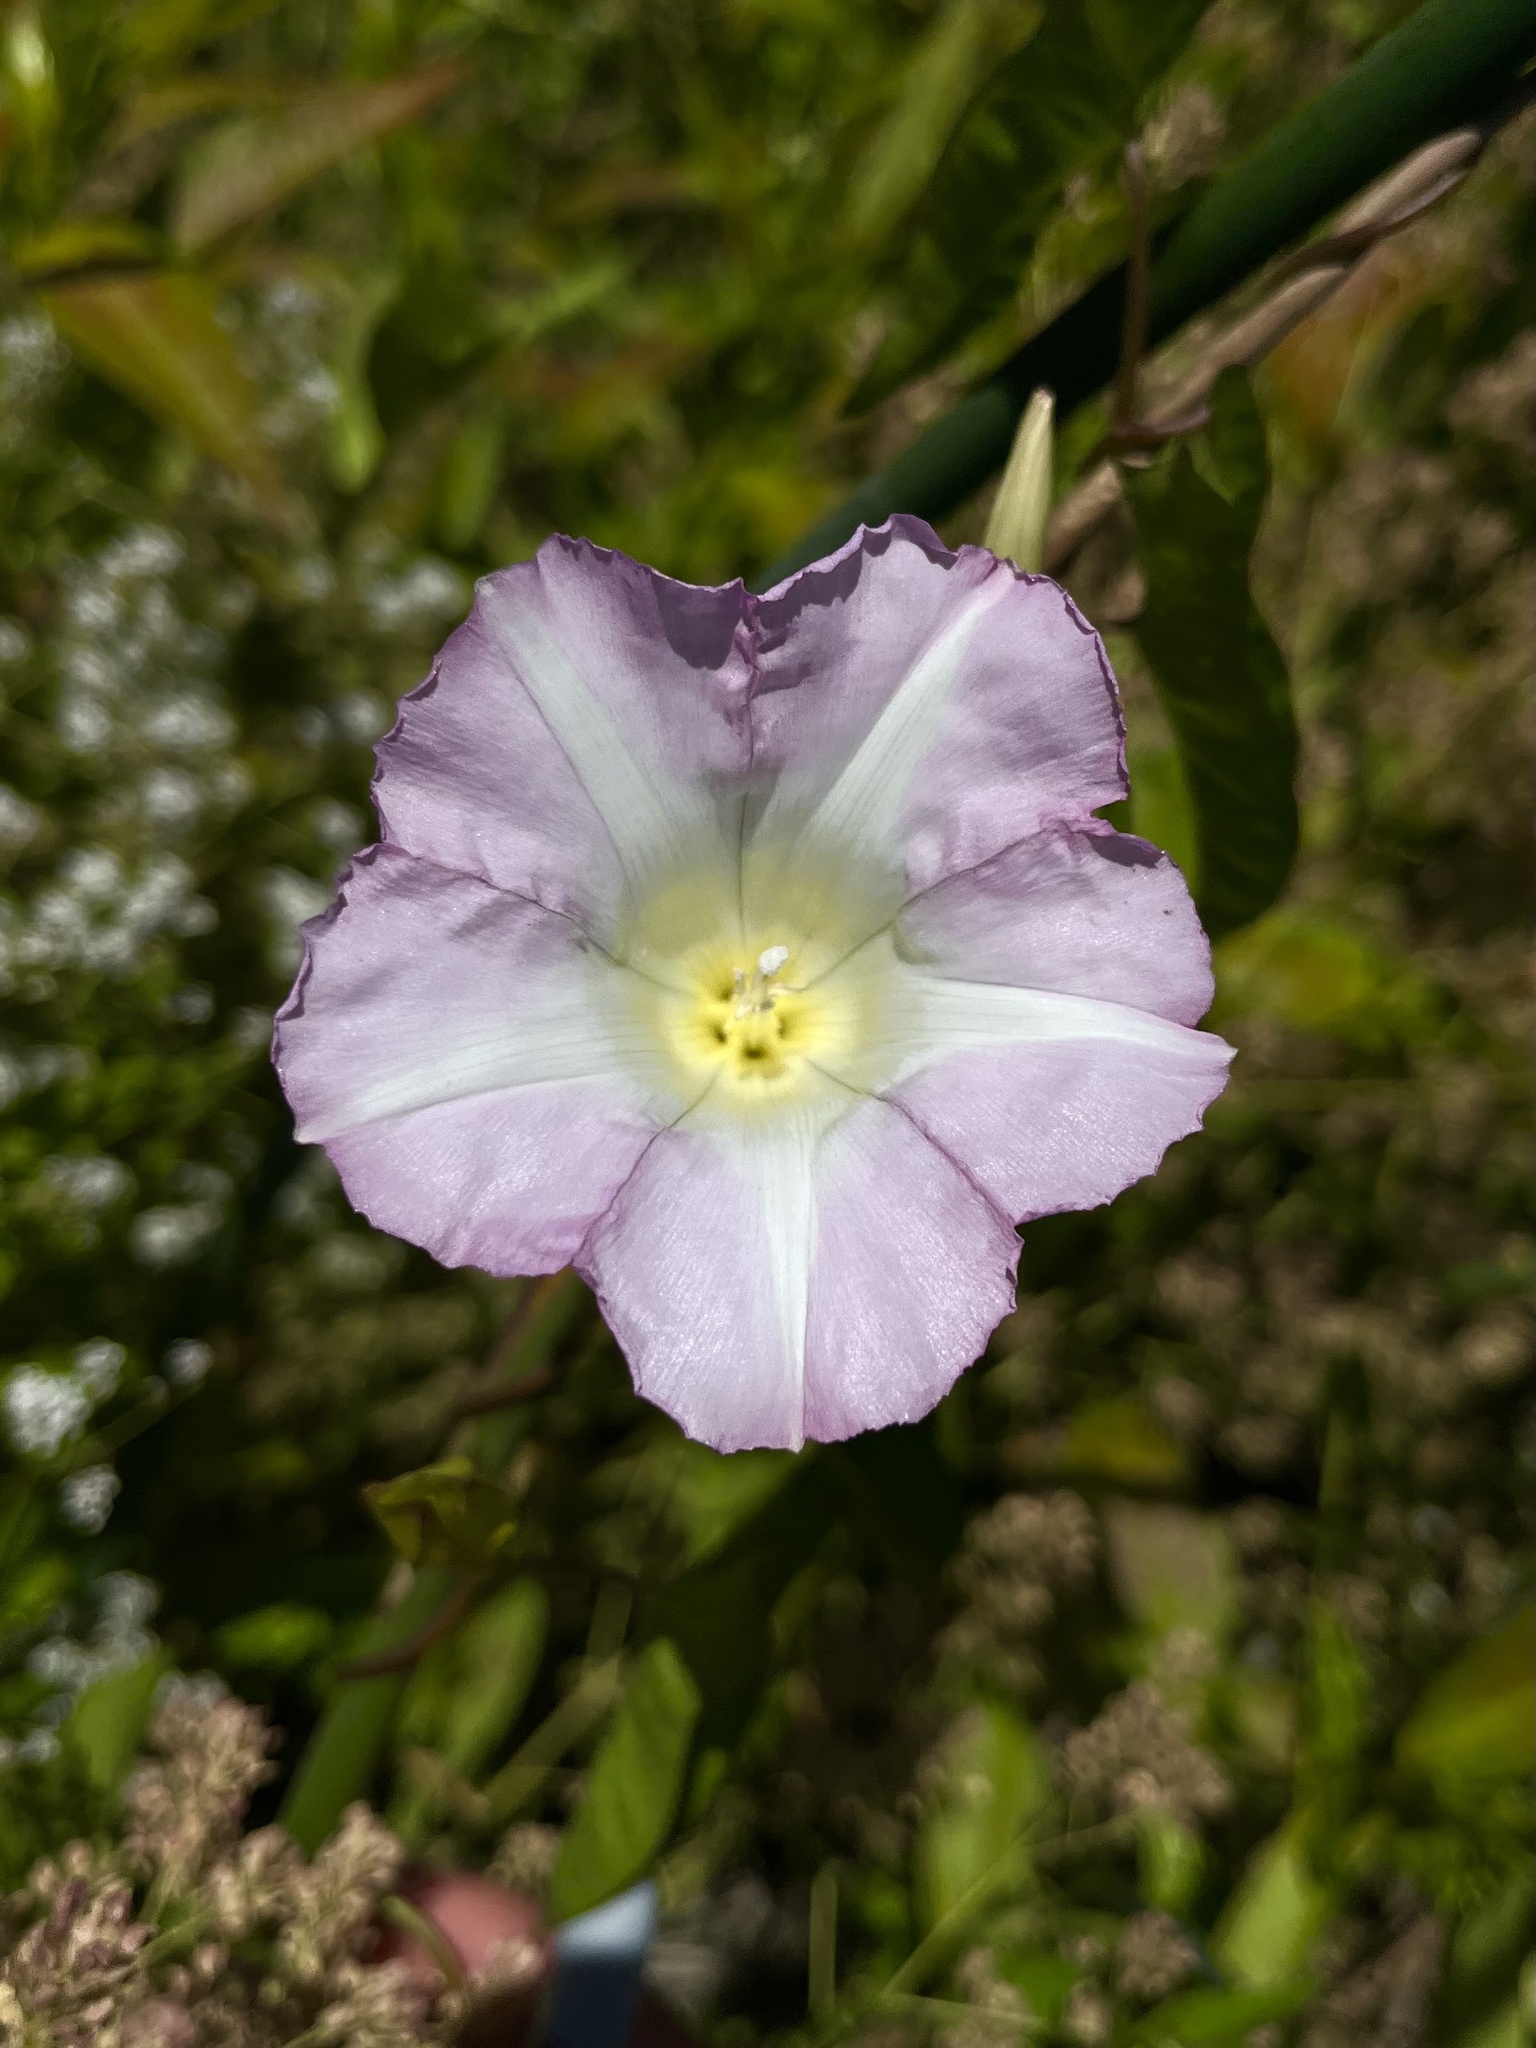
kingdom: Plantae
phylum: Tracheophyta
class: Magnoliopsida
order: Solanales
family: Convolvulaceae
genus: Calystegia
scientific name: Calystegia sepium
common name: Hedge bindweed
